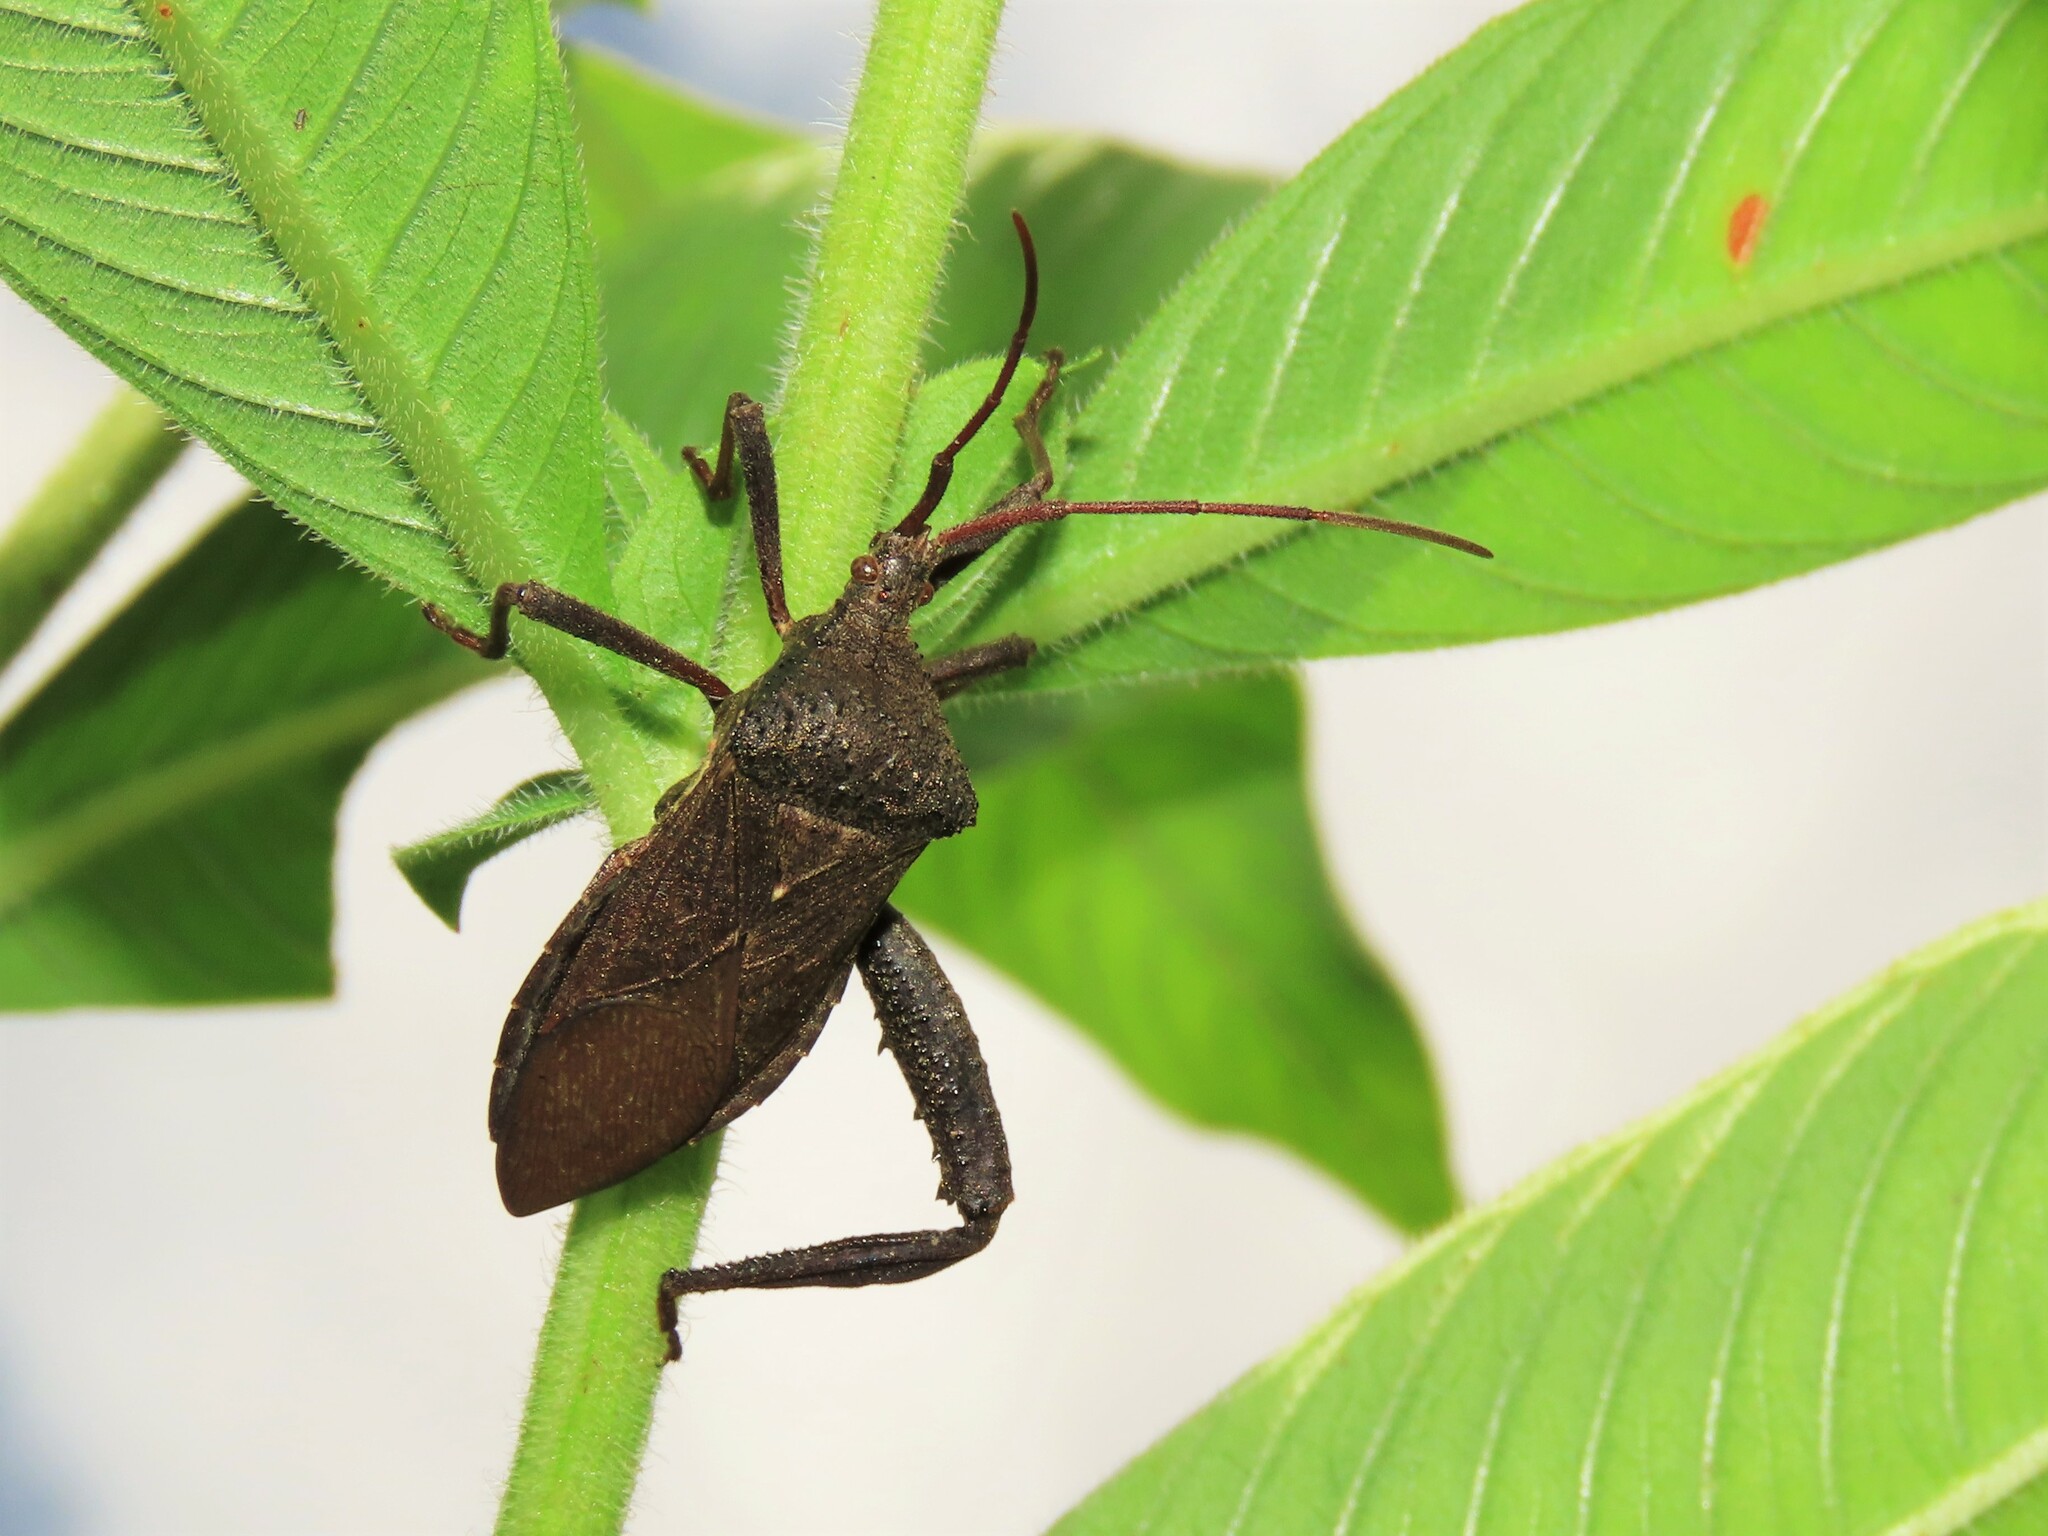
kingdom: Animalia
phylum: Arthropoda
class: Insecta
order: Hemiptera
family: Coreidae
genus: Acanthocephala
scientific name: Acanthocephala femorata
